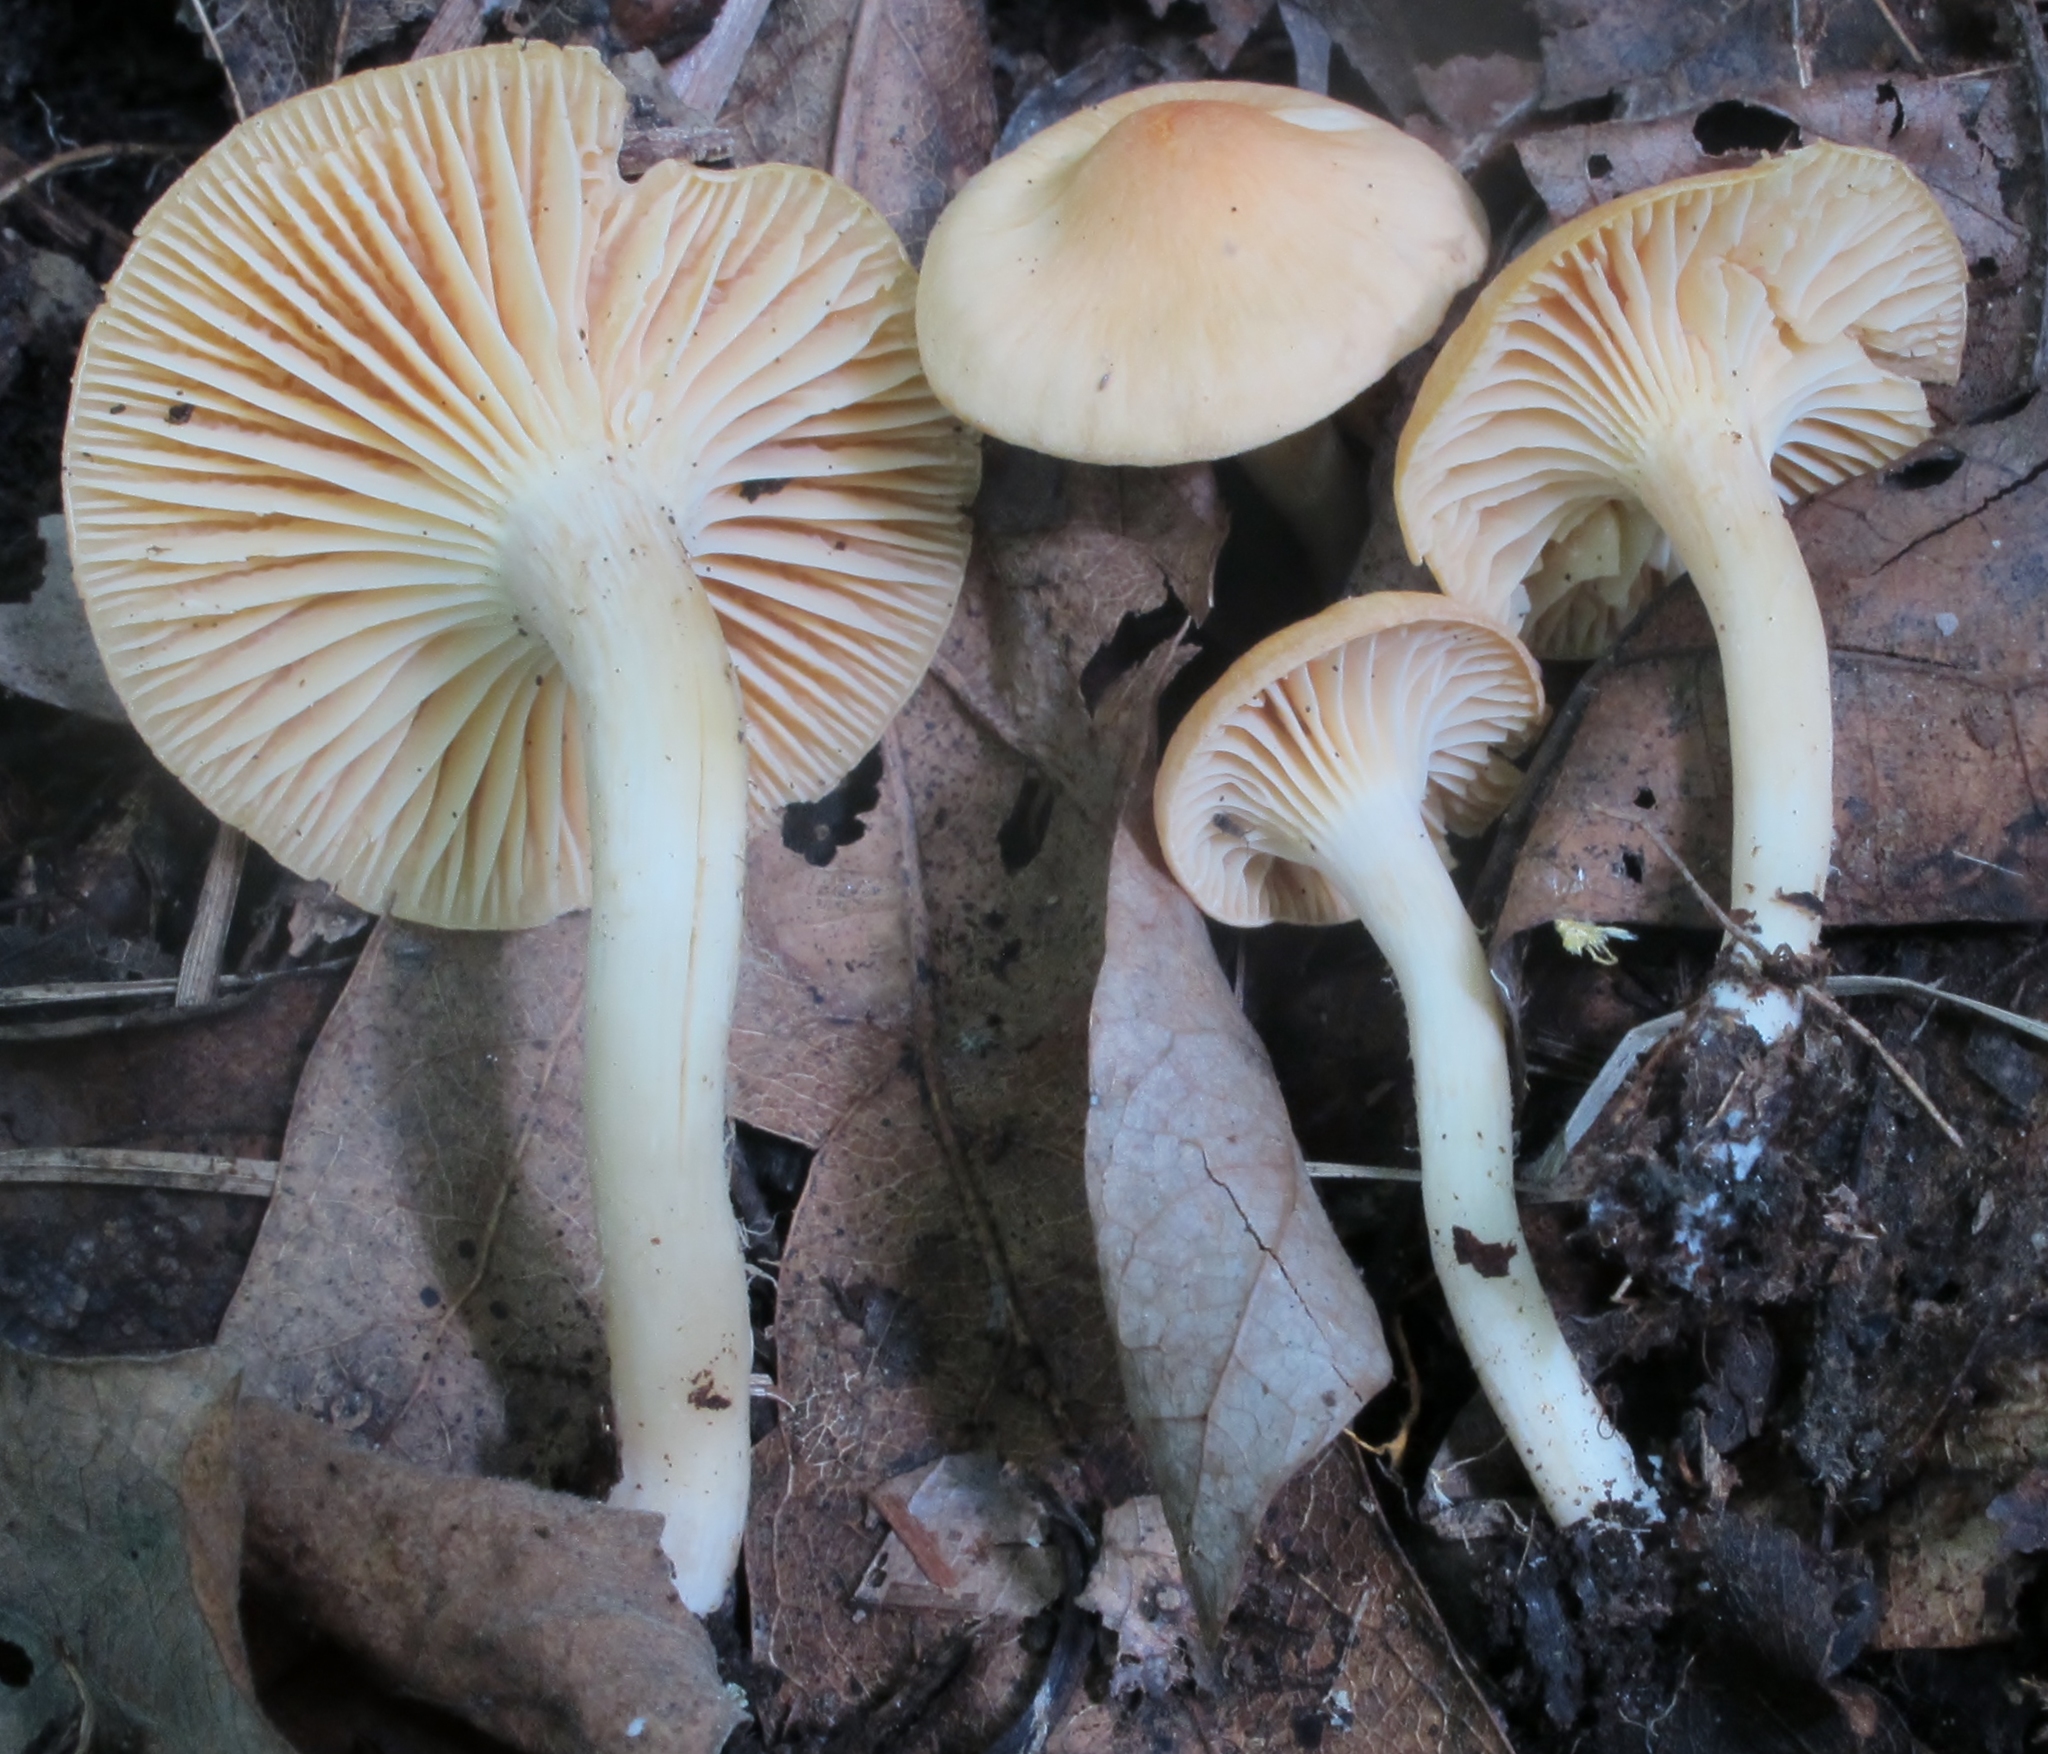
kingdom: Fungi
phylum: Basidiomycota
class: Agaricomycetes
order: Agaricales
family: Hygrophoraceae
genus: Cuphophyllus
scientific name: Cuphophyllus pratensis
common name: Meadow waxcap
